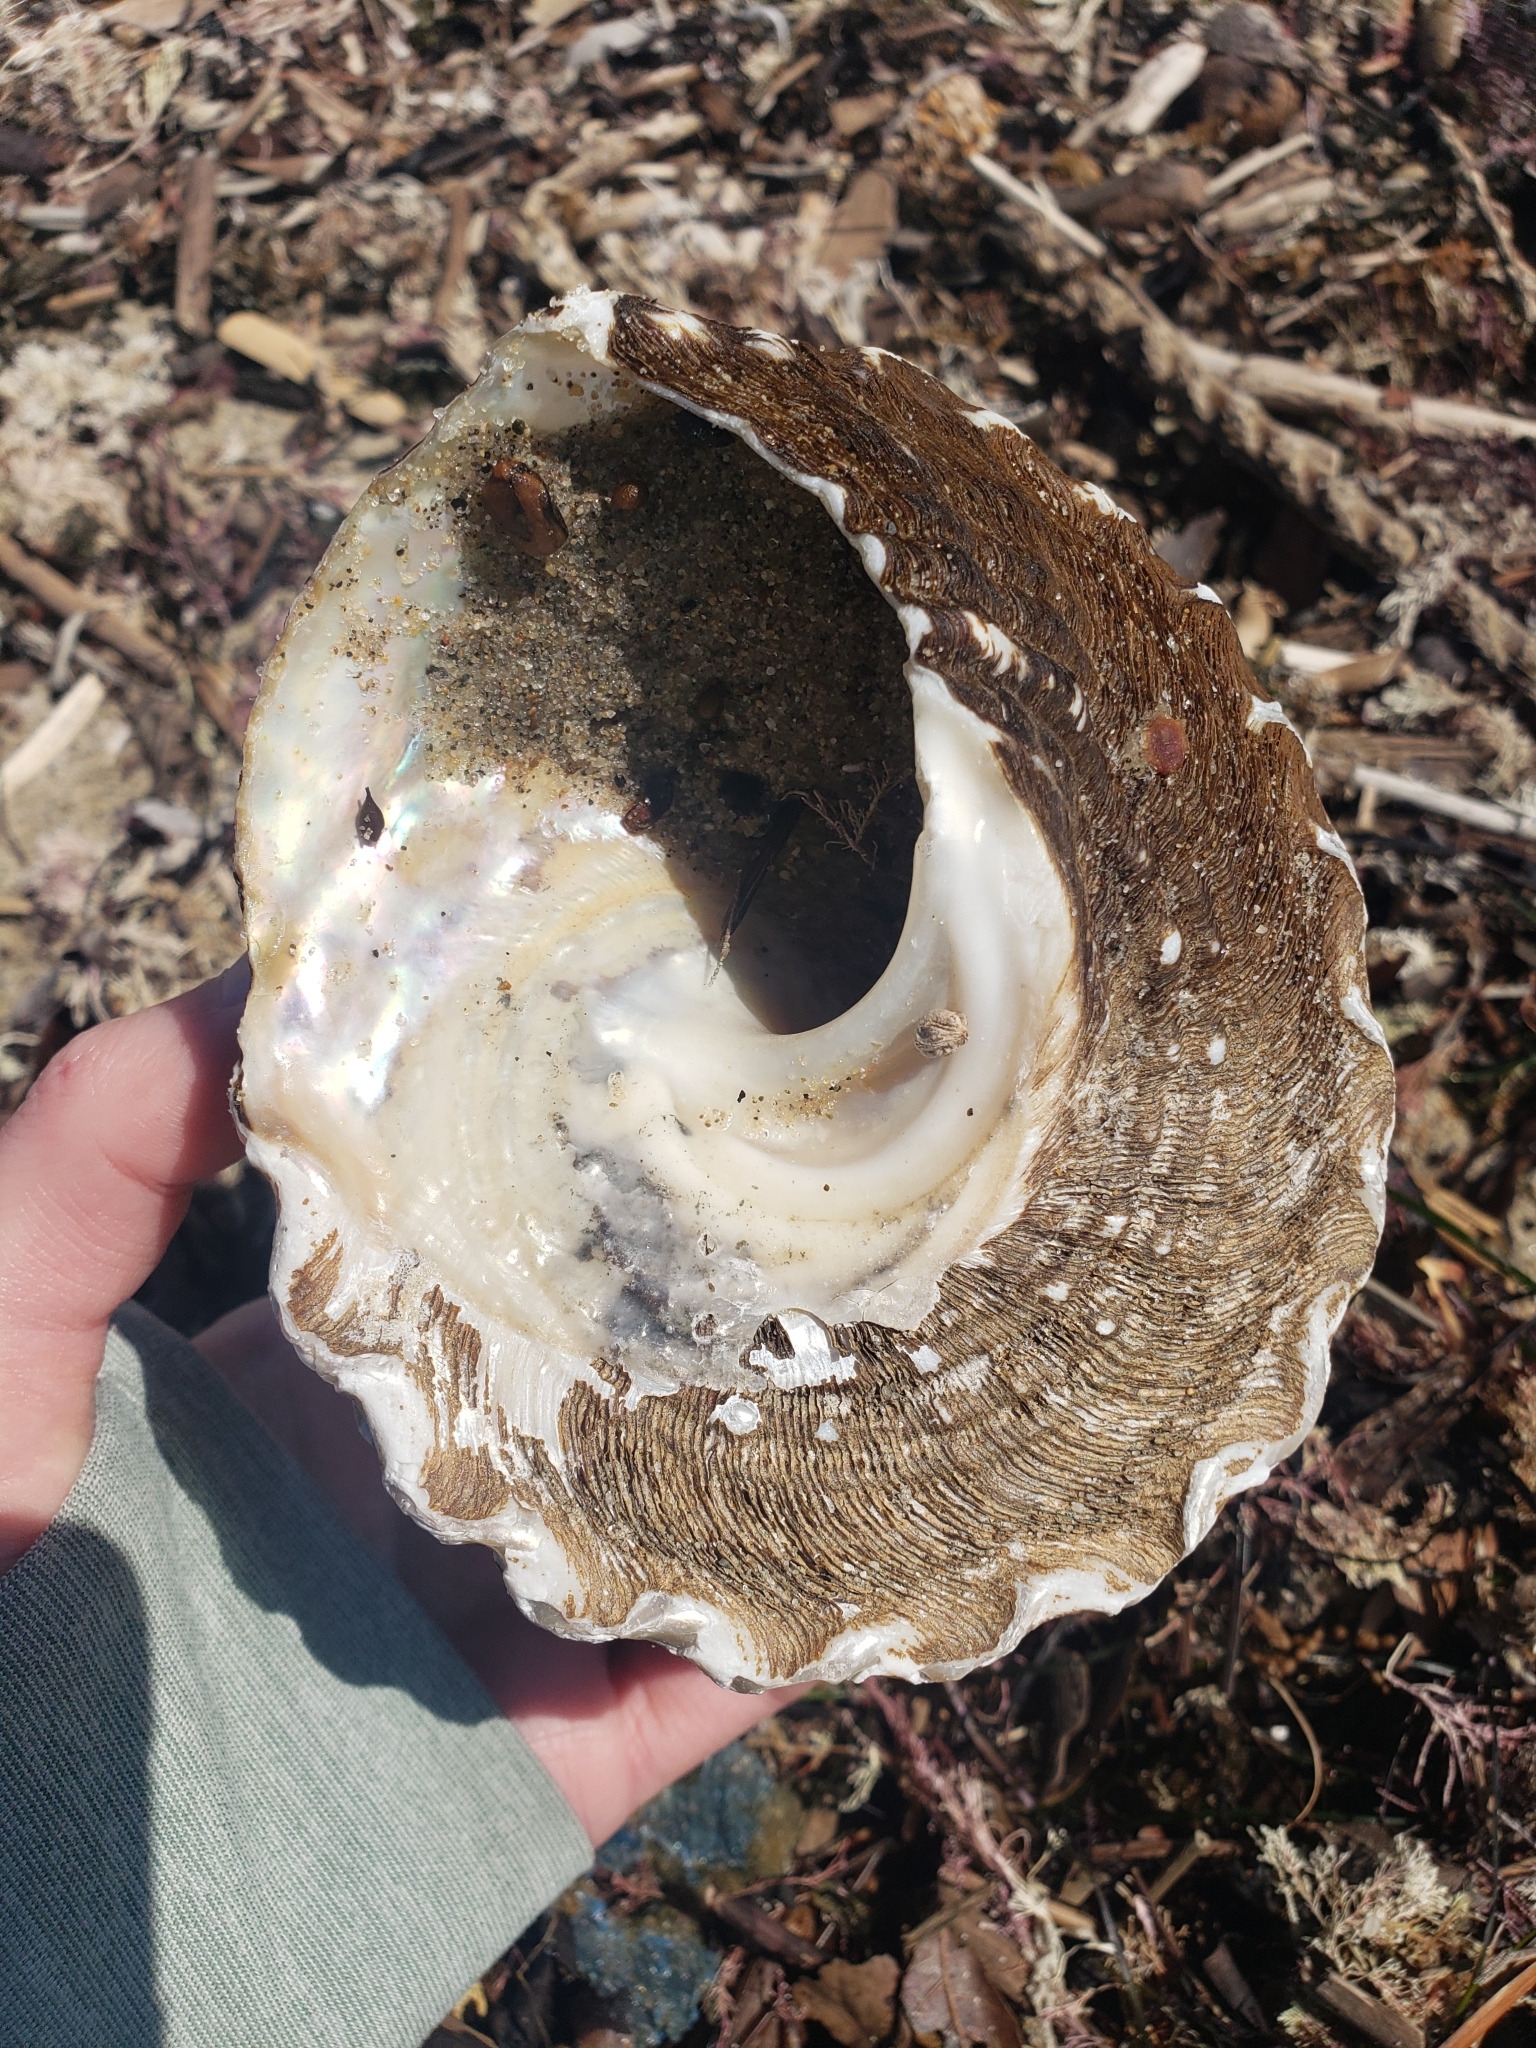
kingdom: Animalia
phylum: Mollusca
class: Gastropoda
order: Trochida
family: Turbinidae
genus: Megastraea
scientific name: Megastraea undosa
